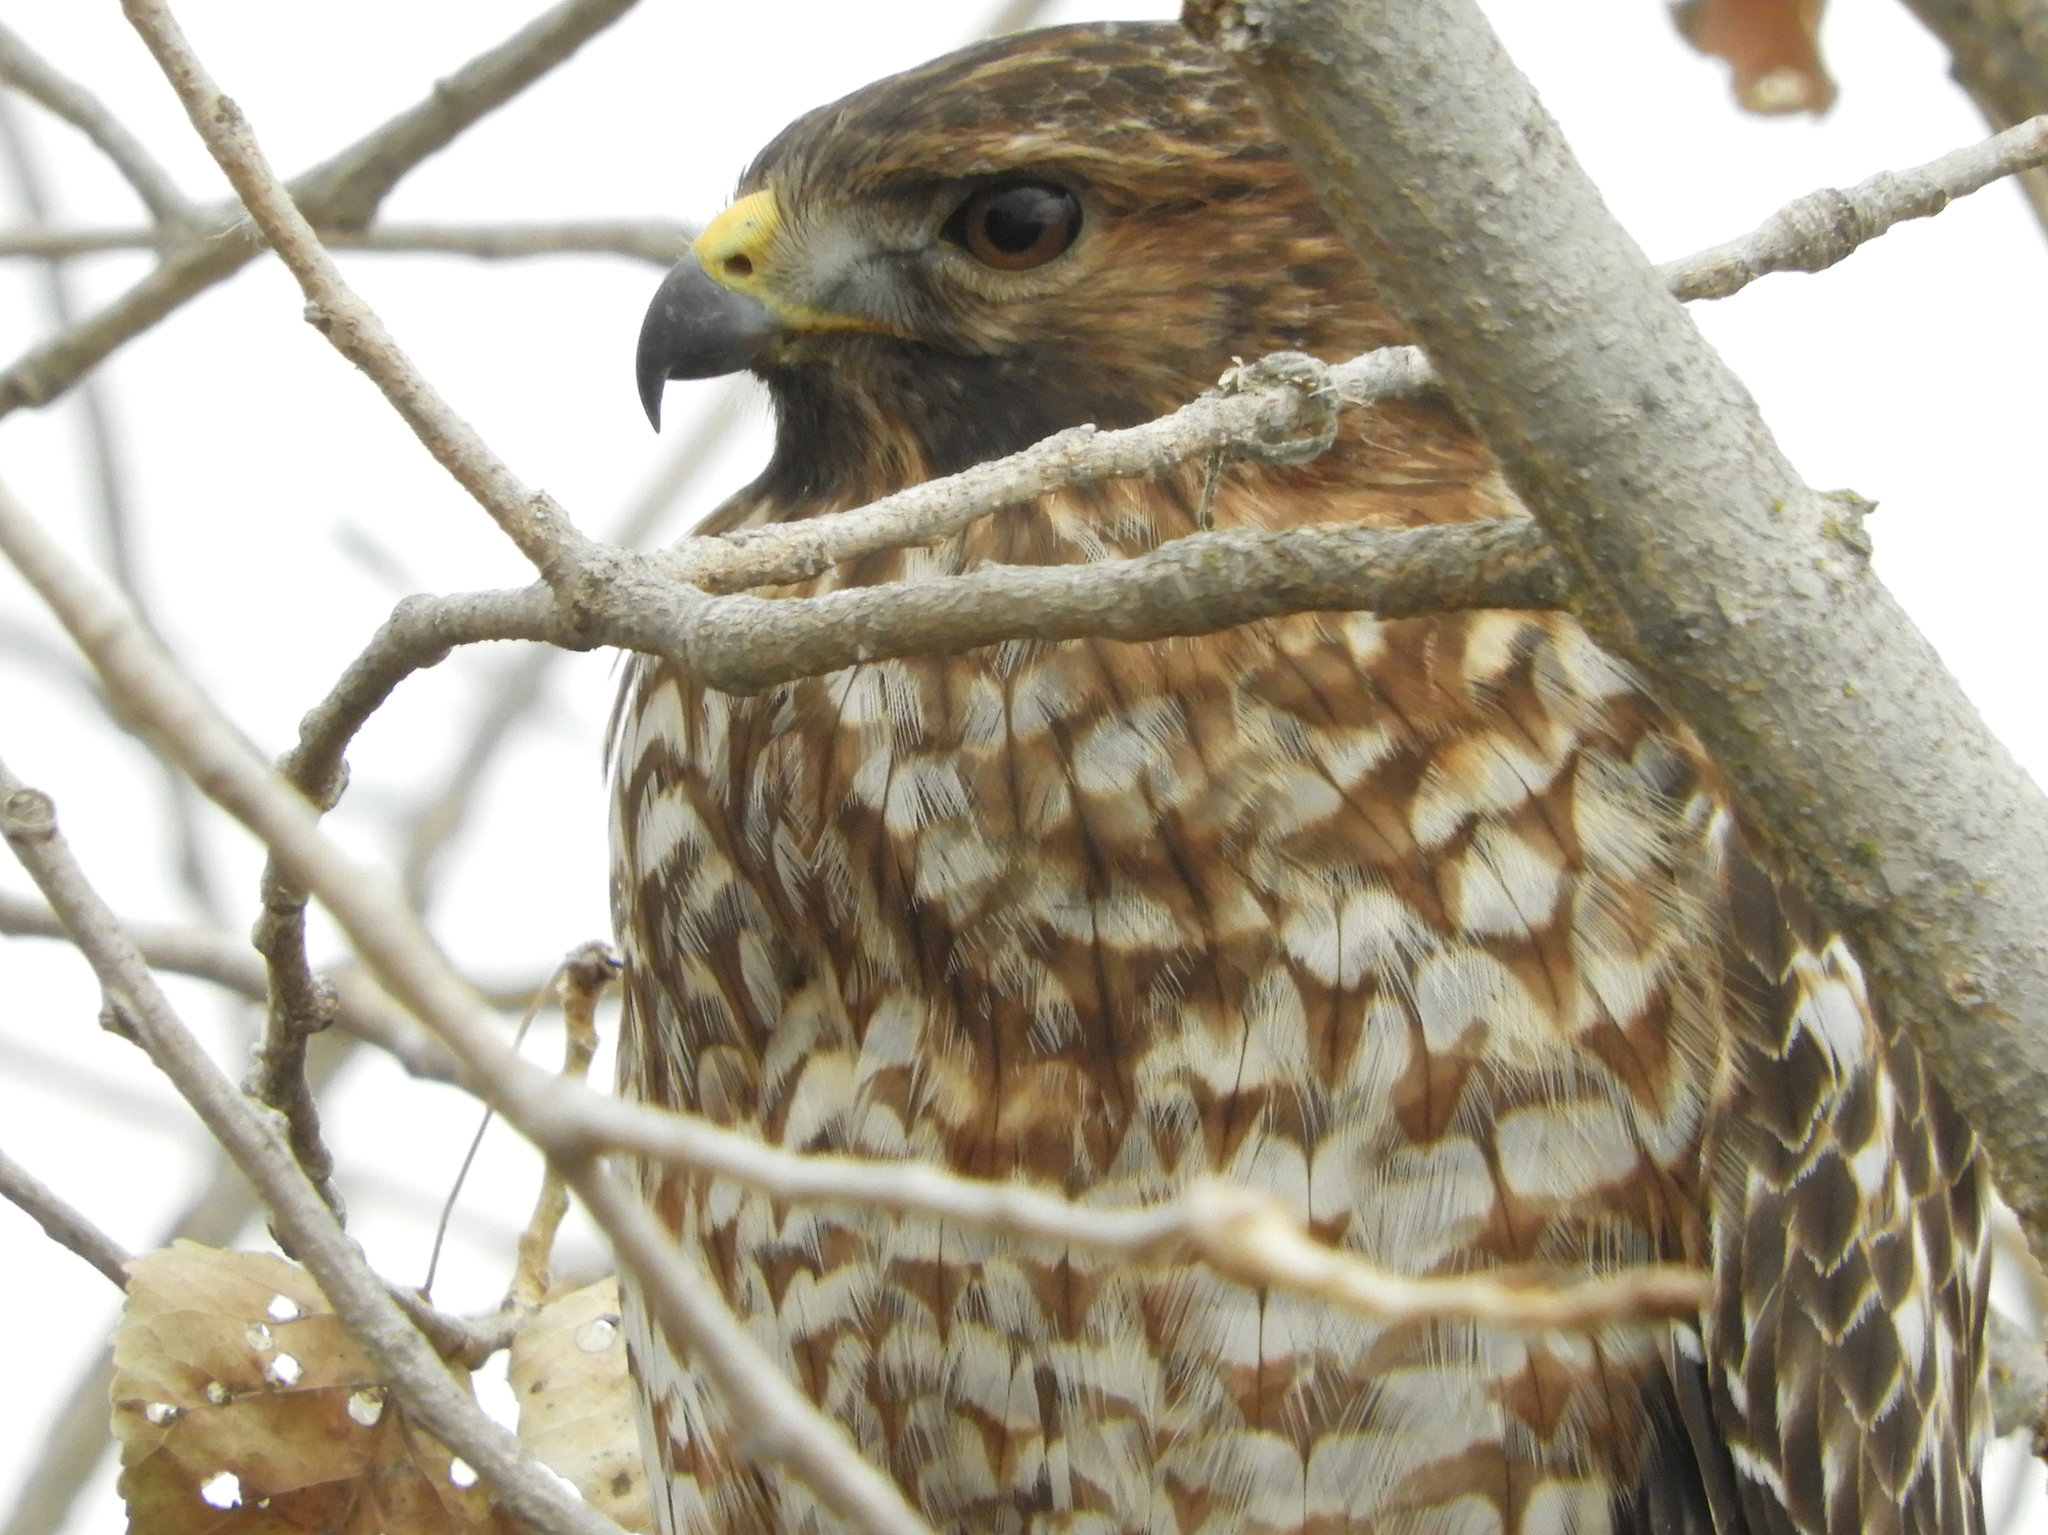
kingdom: Animalia
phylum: Chordata
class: Aves
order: Accipitriformes
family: Accipitridae
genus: Buteo
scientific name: Buteo lineatus
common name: Red-shouldered hawk
